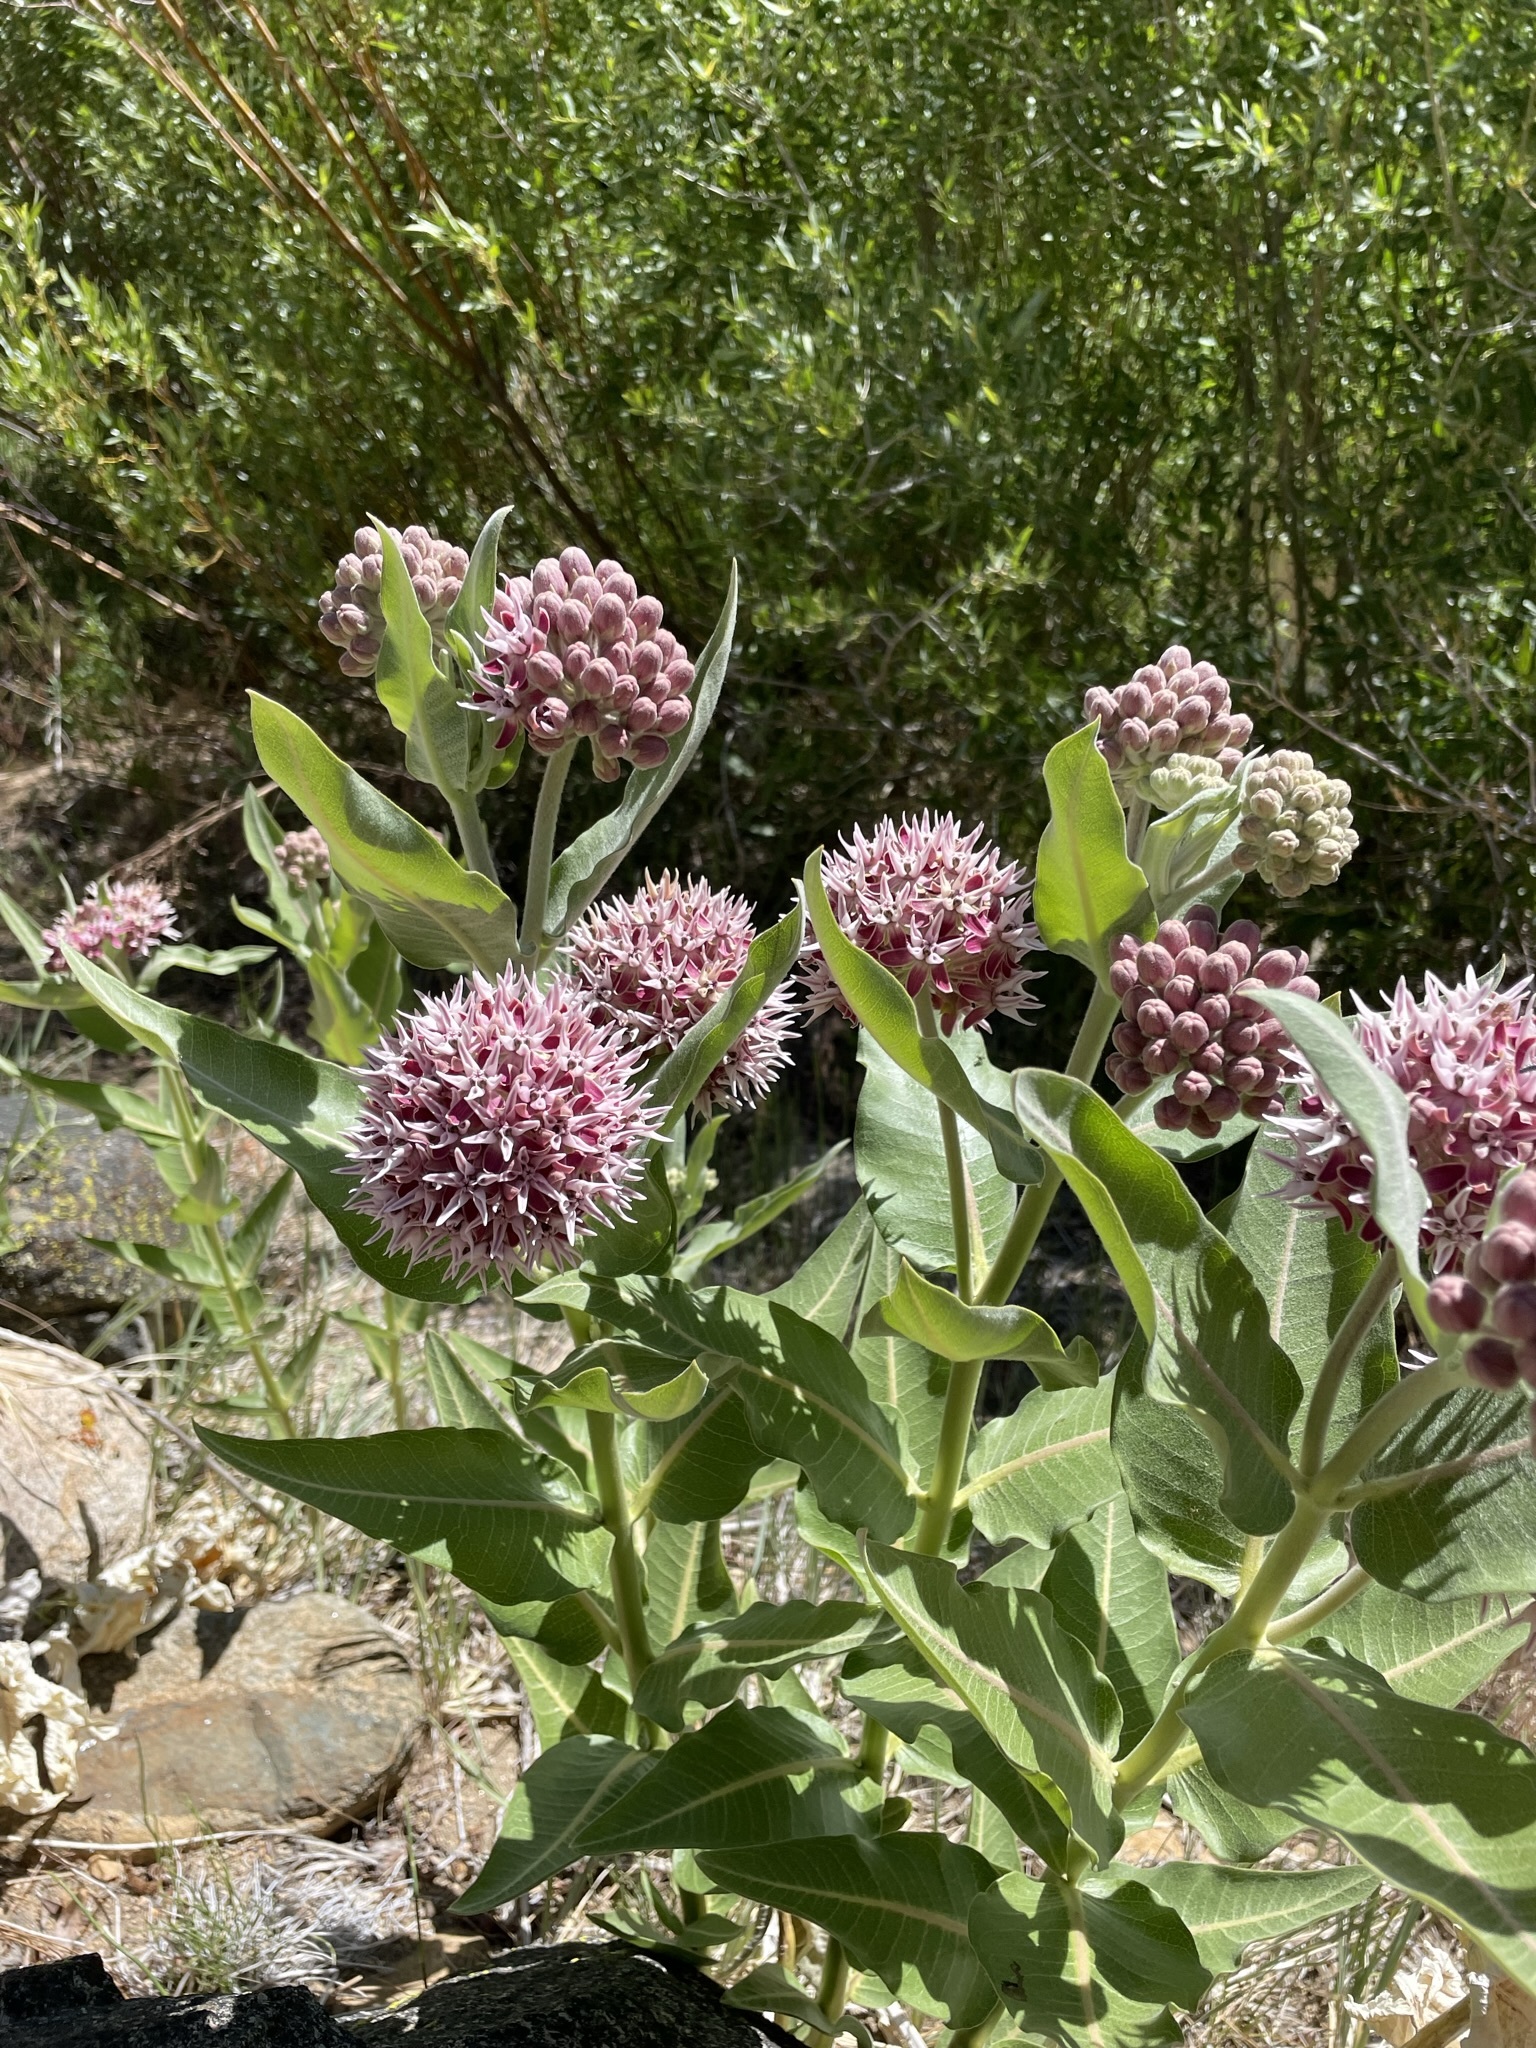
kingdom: Plantae
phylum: Tracheophyta
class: Magnoliopsida
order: Gentianales
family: Apocynaceae
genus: Asclepias
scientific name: Asclepias speciosa
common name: Showy milkweed
